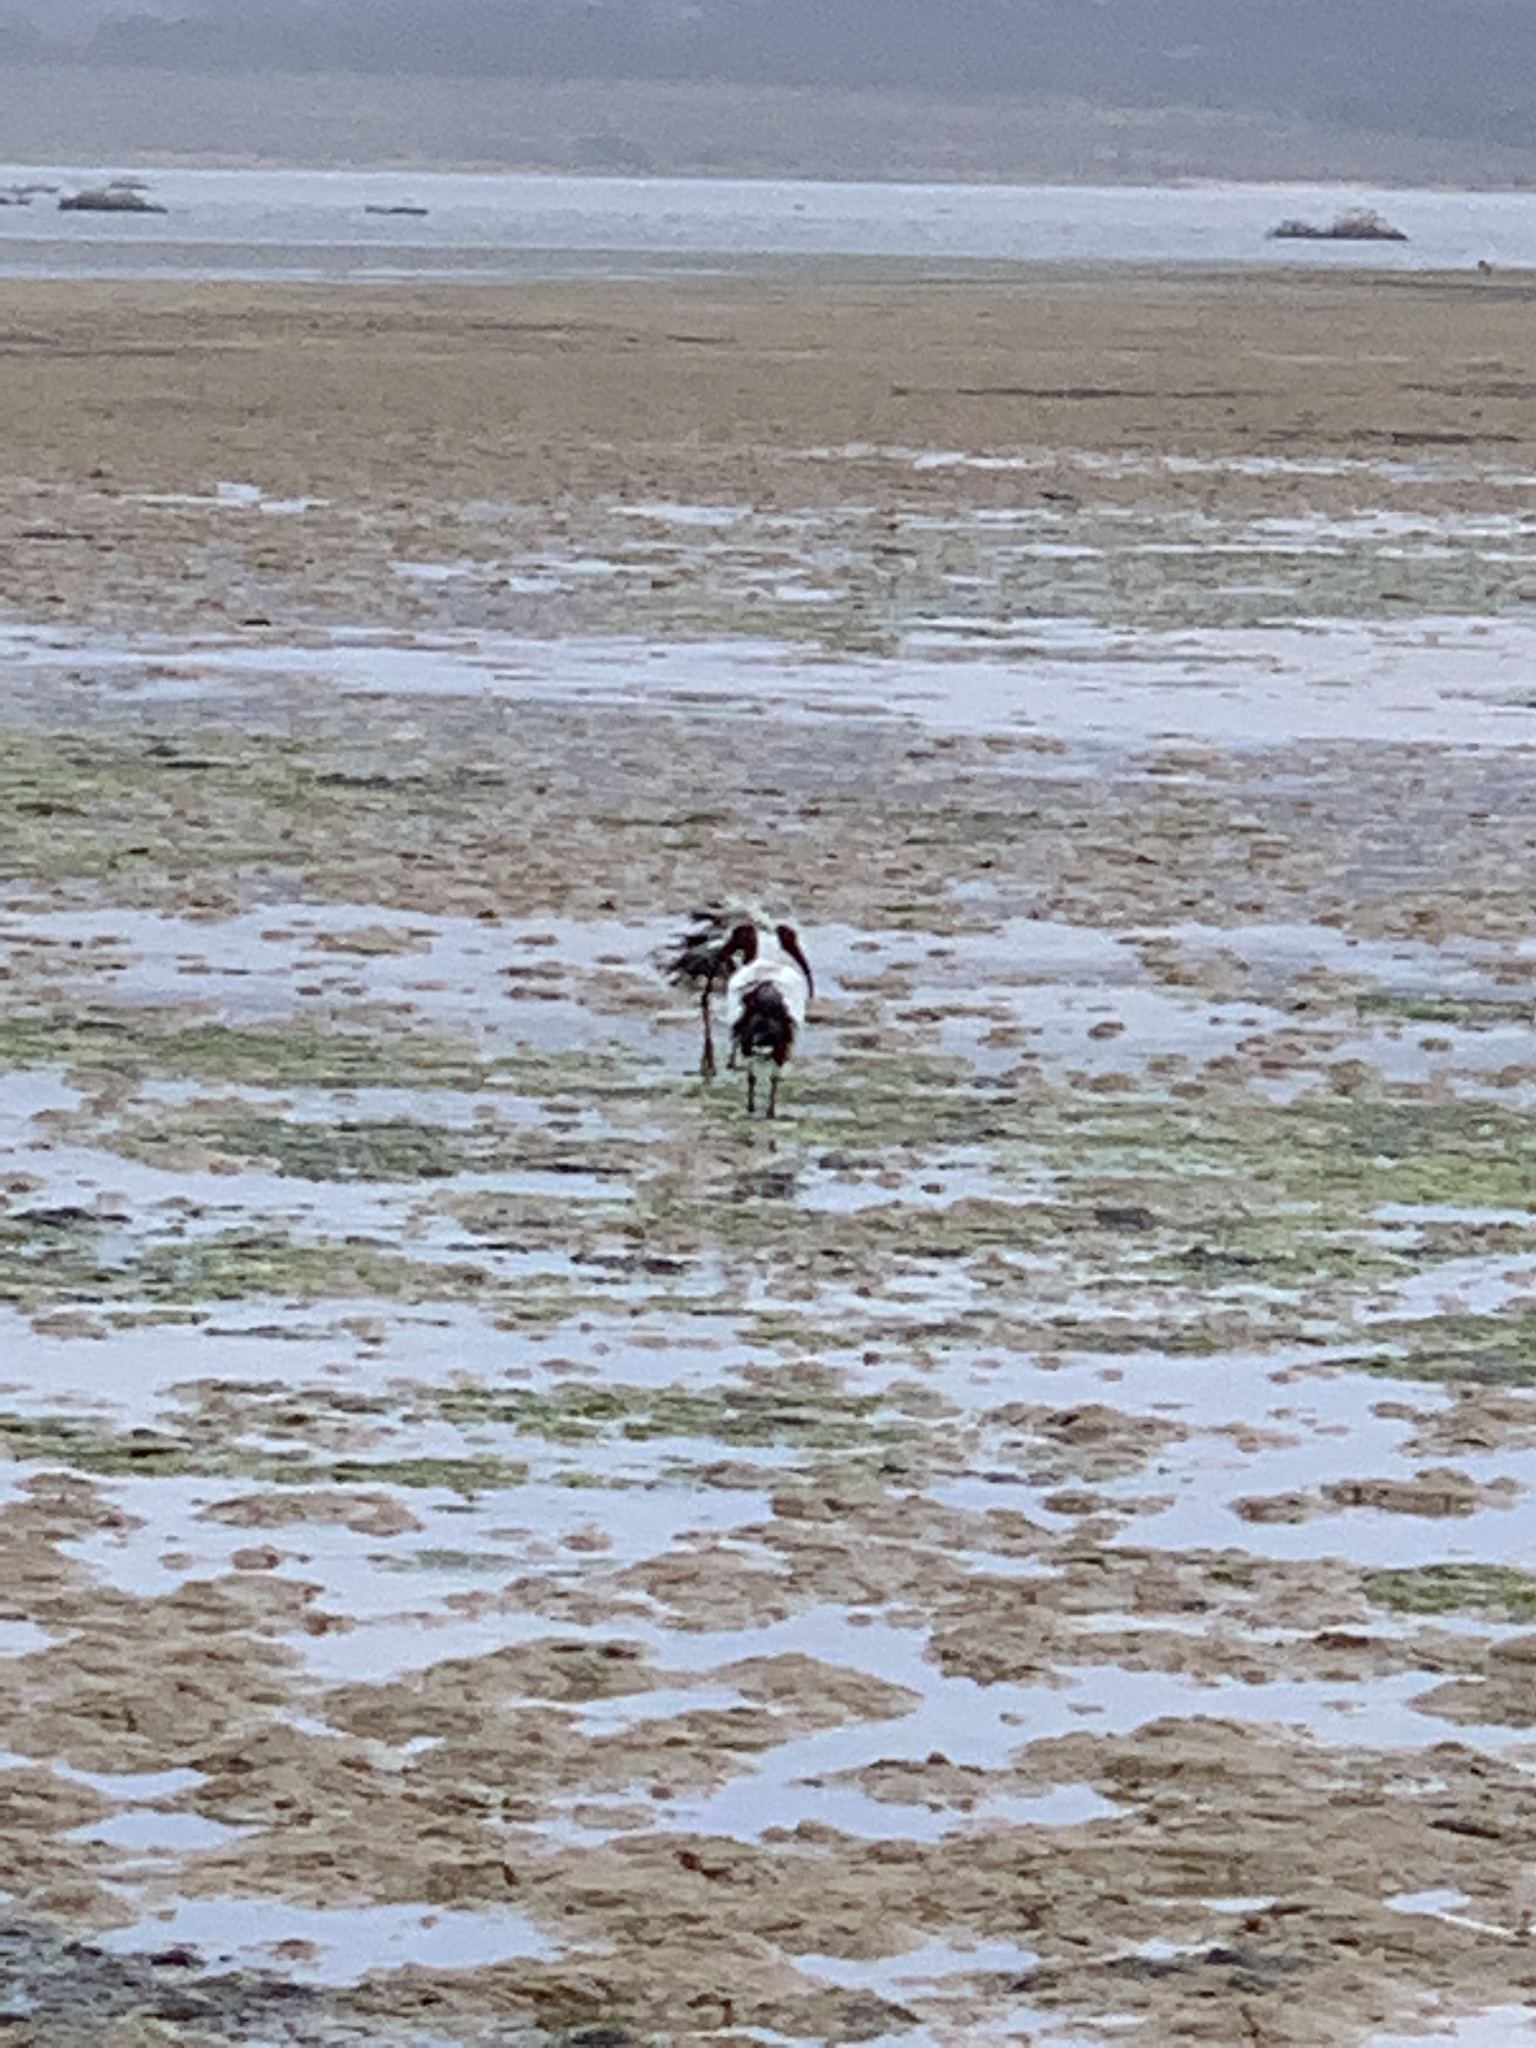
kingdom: Animalia
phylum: Chordata
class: Aves
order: Pelecaniformes
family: Threskiornithidae
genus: Threskiornis
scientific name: Threskiornis aethiopicus
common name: Sacred ibis
